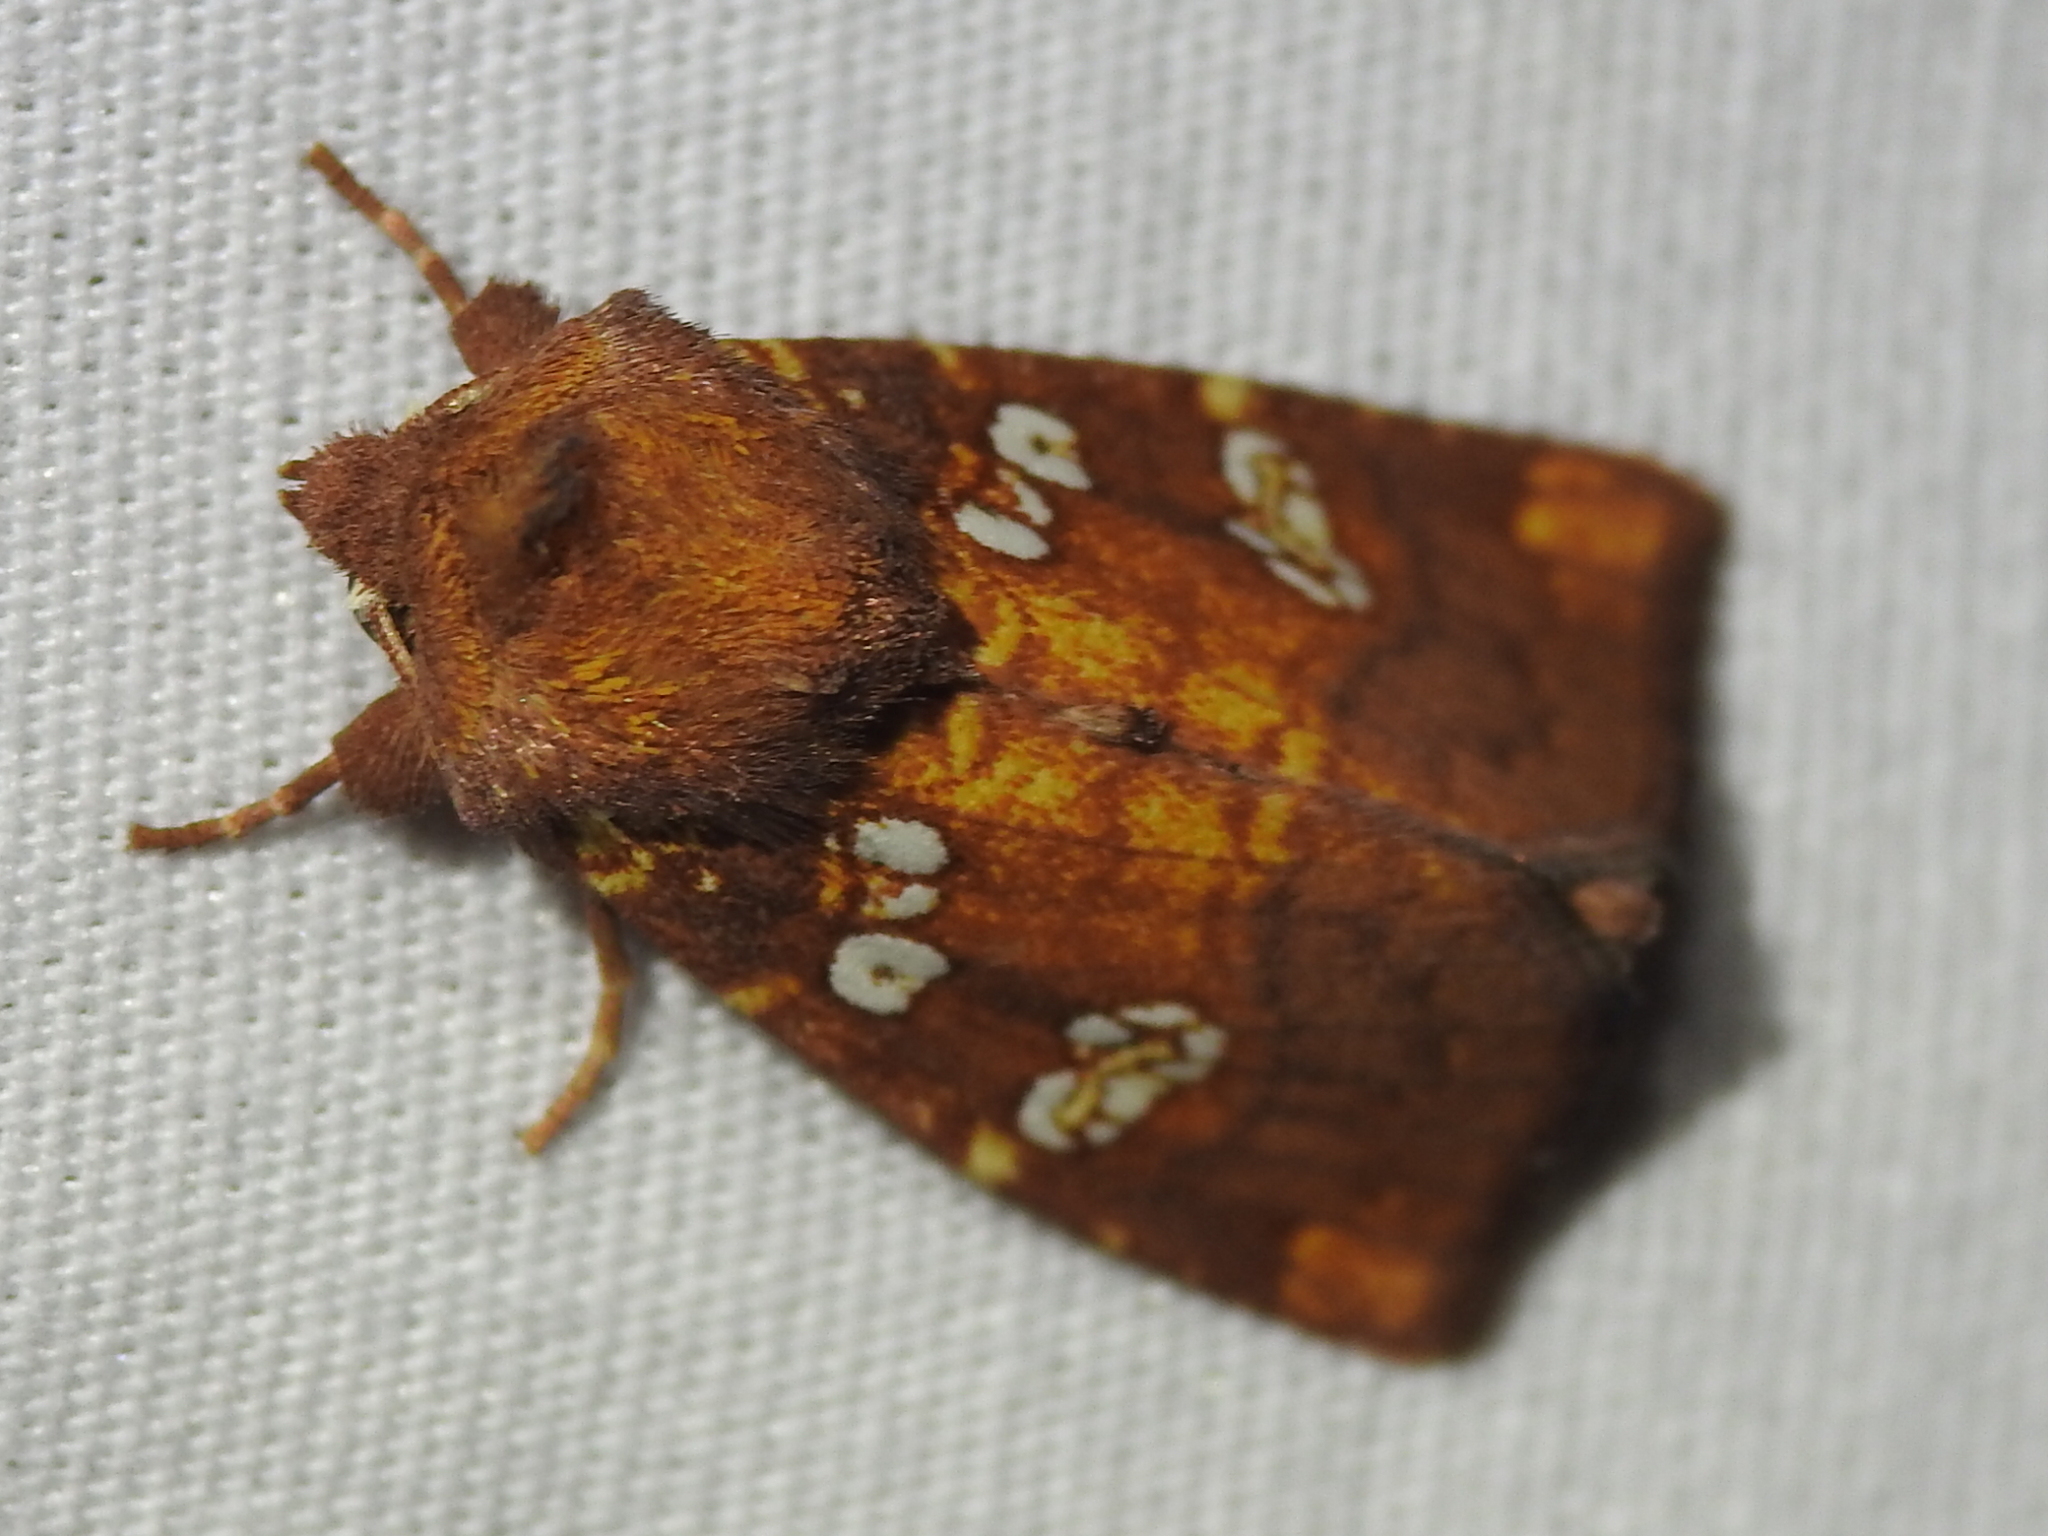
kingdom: Animalia
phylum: Arthropoda
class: Insecta
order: Lepidoptera
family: Noctuidae
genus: Papaipema
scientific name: Papaipema baptisiae
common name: Wild indigo borer moth
